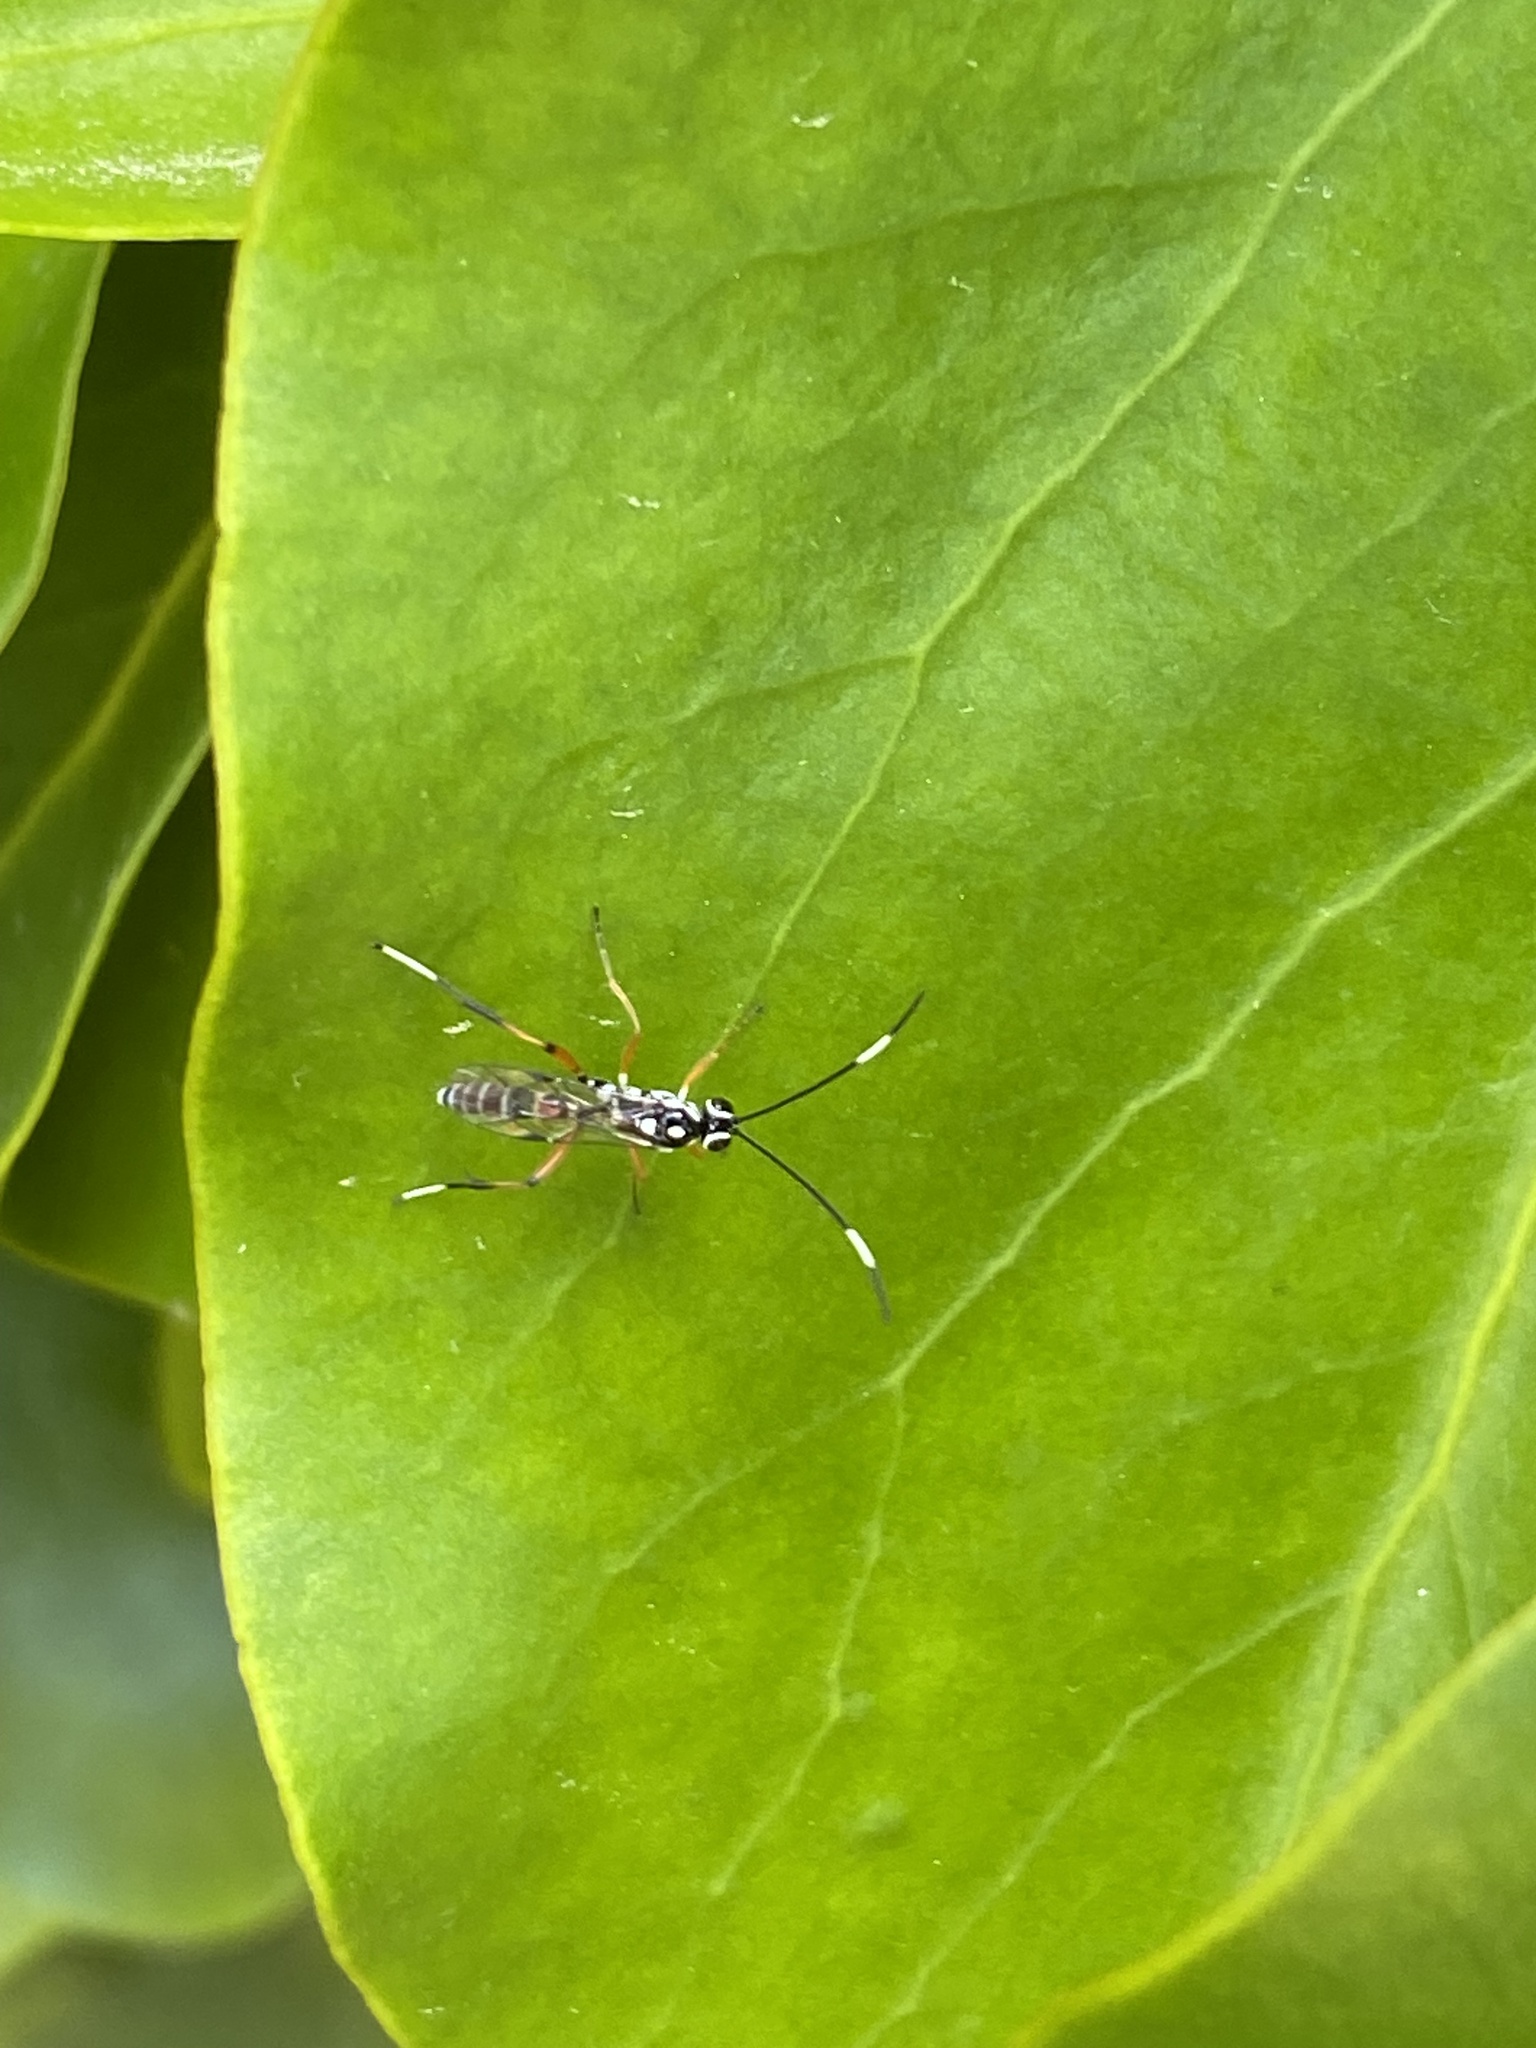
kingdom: Animalia
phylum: Arthropoda
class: Insecta
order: Hymenoptera
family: Ichneumonidae
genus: Glabridorsum
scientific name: Glabridorsum stokesii
